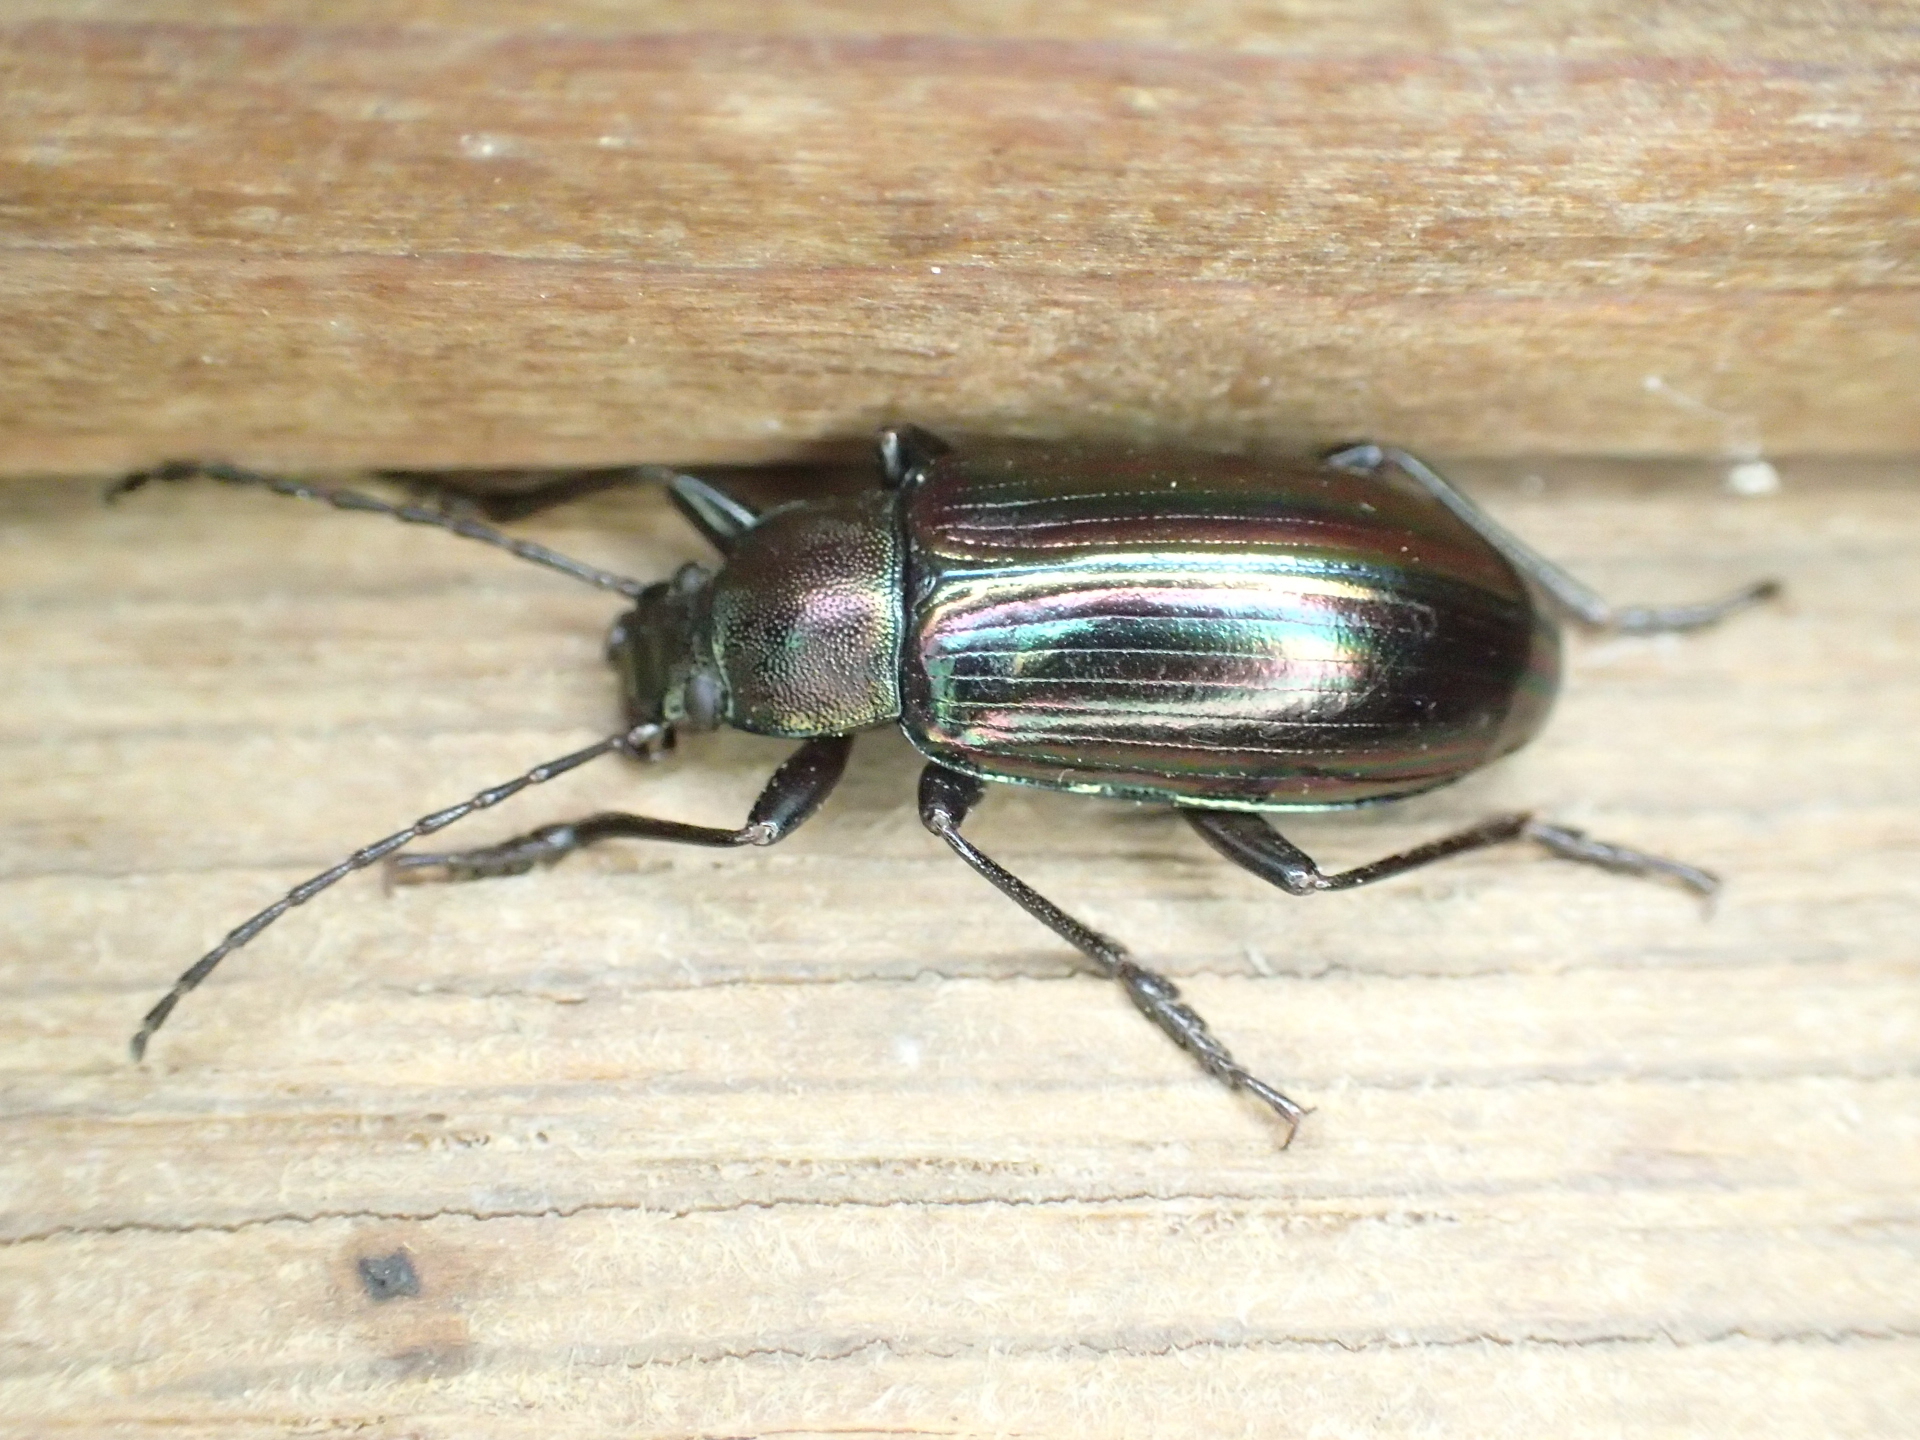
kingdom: Animalia
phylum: Arthropoda
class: Insecta
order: Coleoptera
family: Tenebrionidae
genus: Tarpela
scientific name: Tarpela micans
